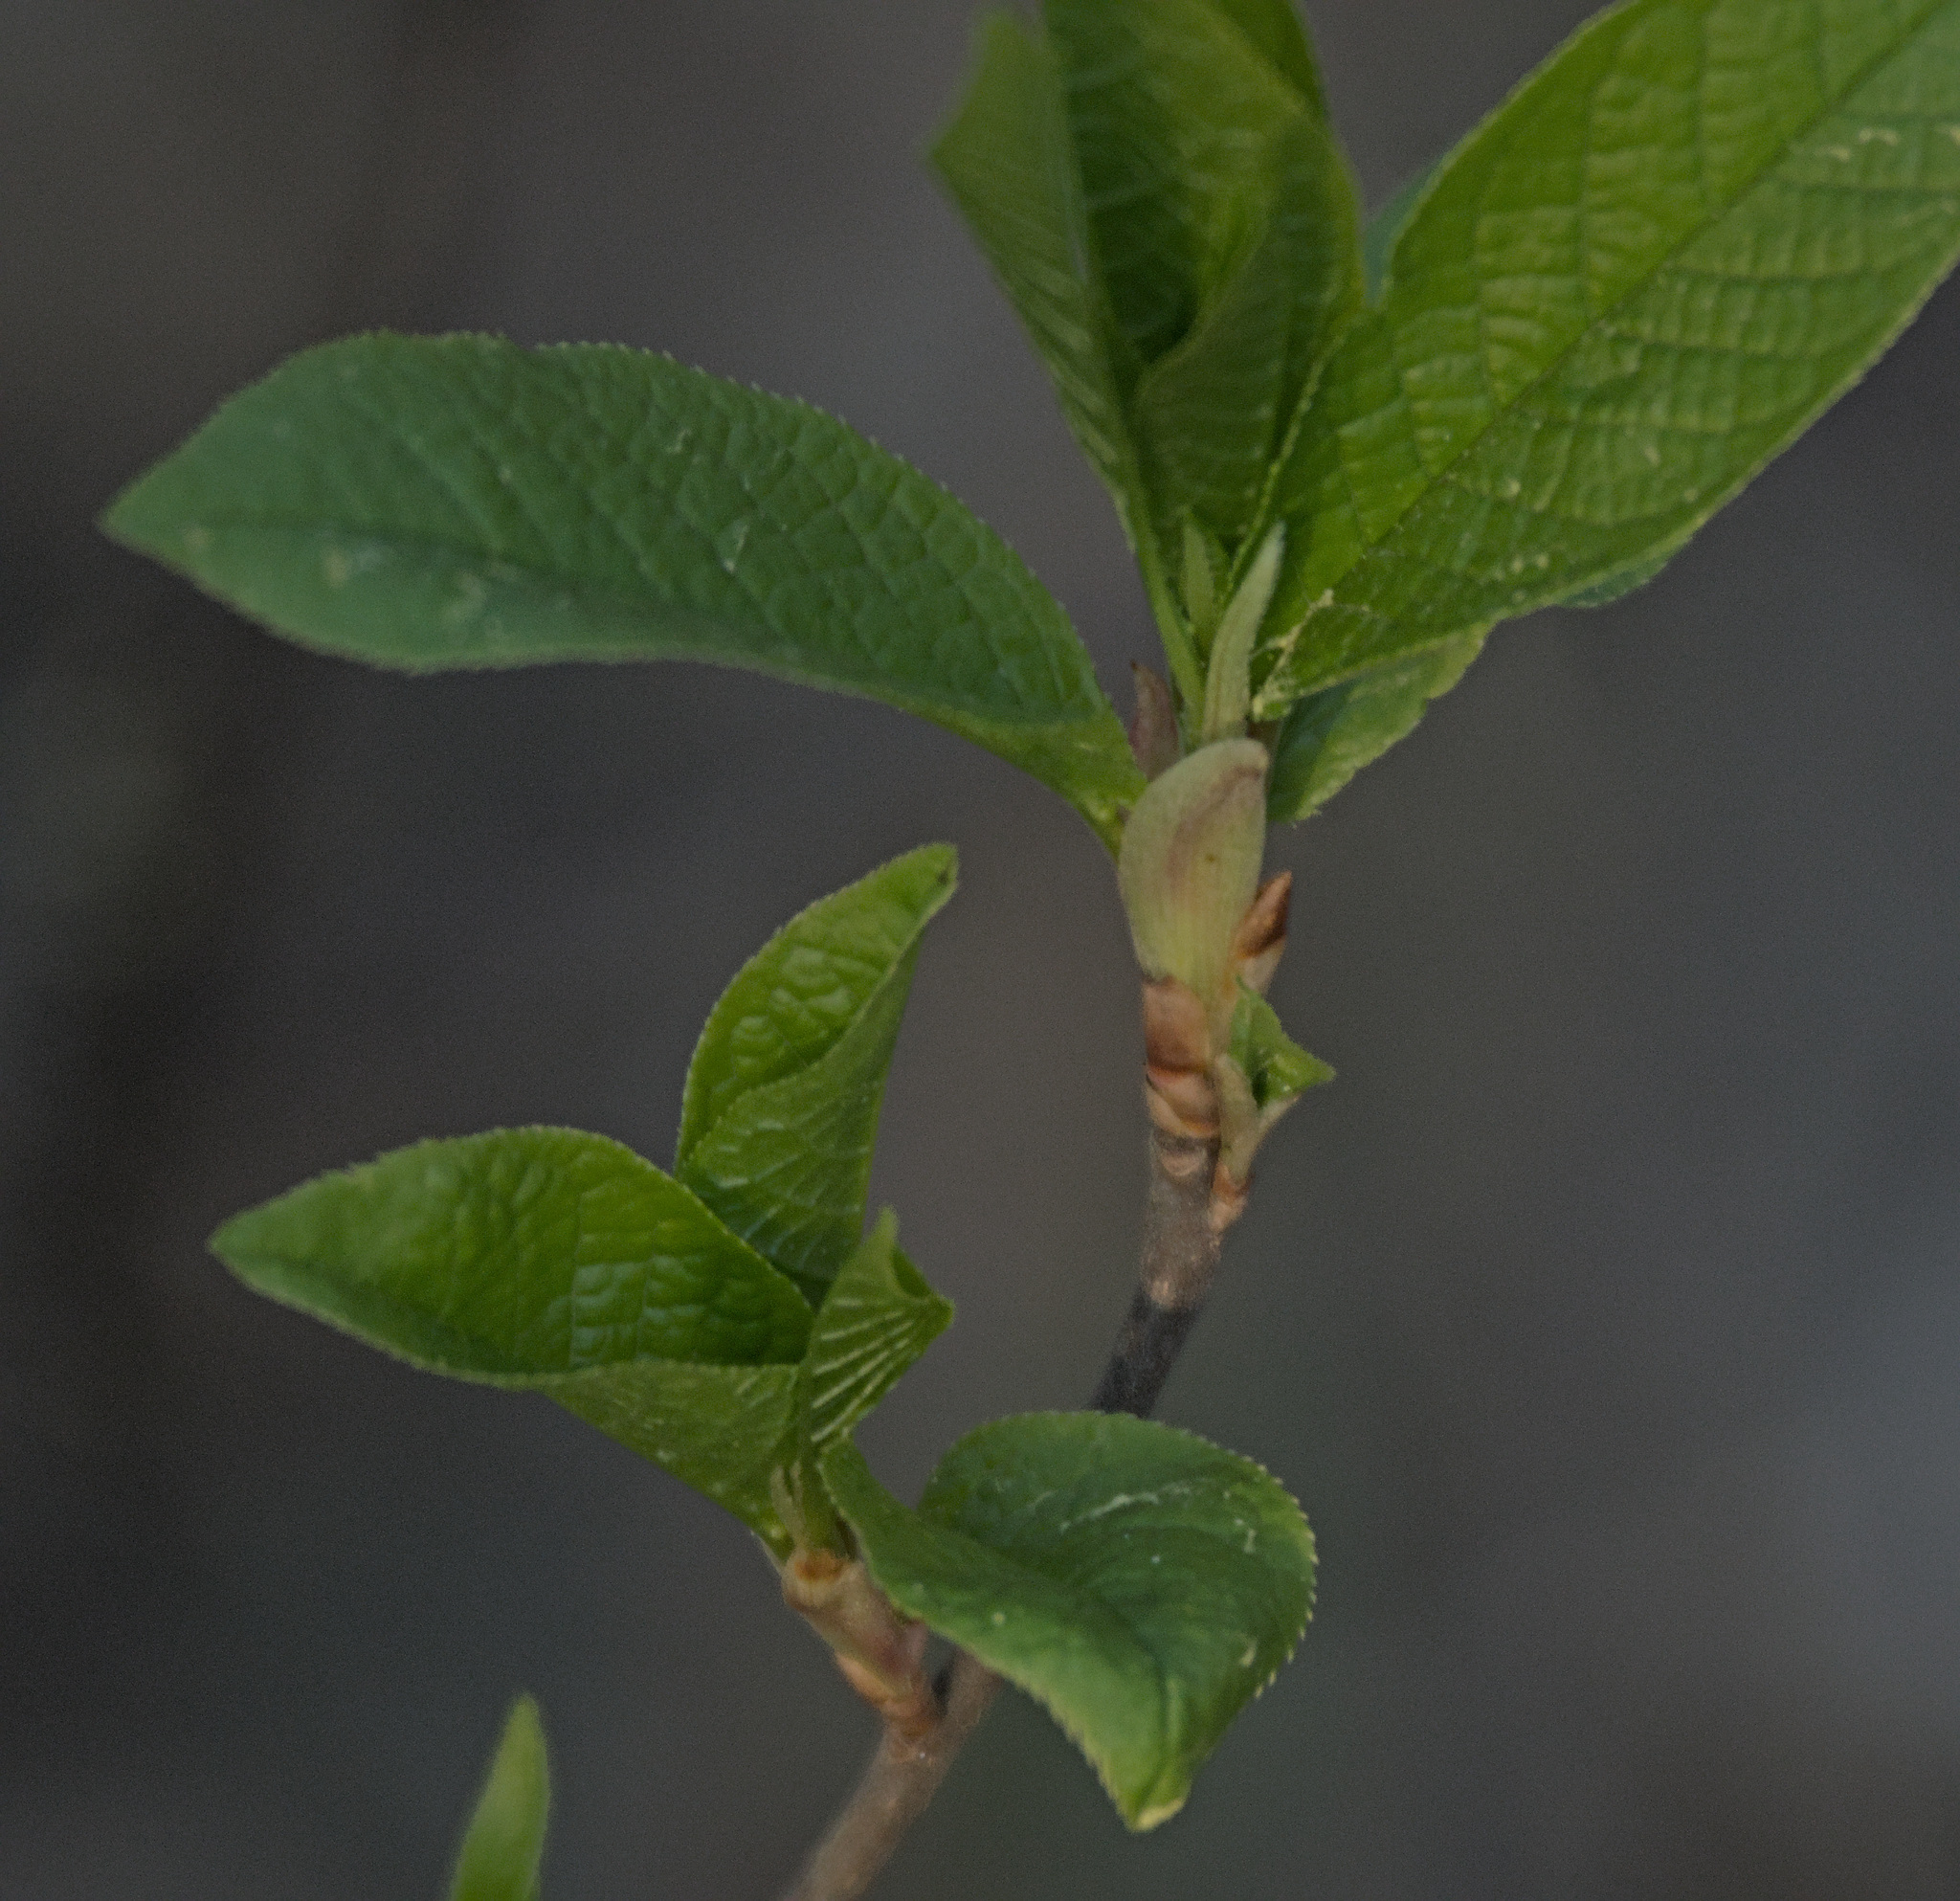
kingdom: Plantae
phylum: Tracheophyta
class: Magnoliopsida
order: Rosales
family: Rosaceae
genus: Prunus
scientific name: Prunus padus
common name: Bird cherry
